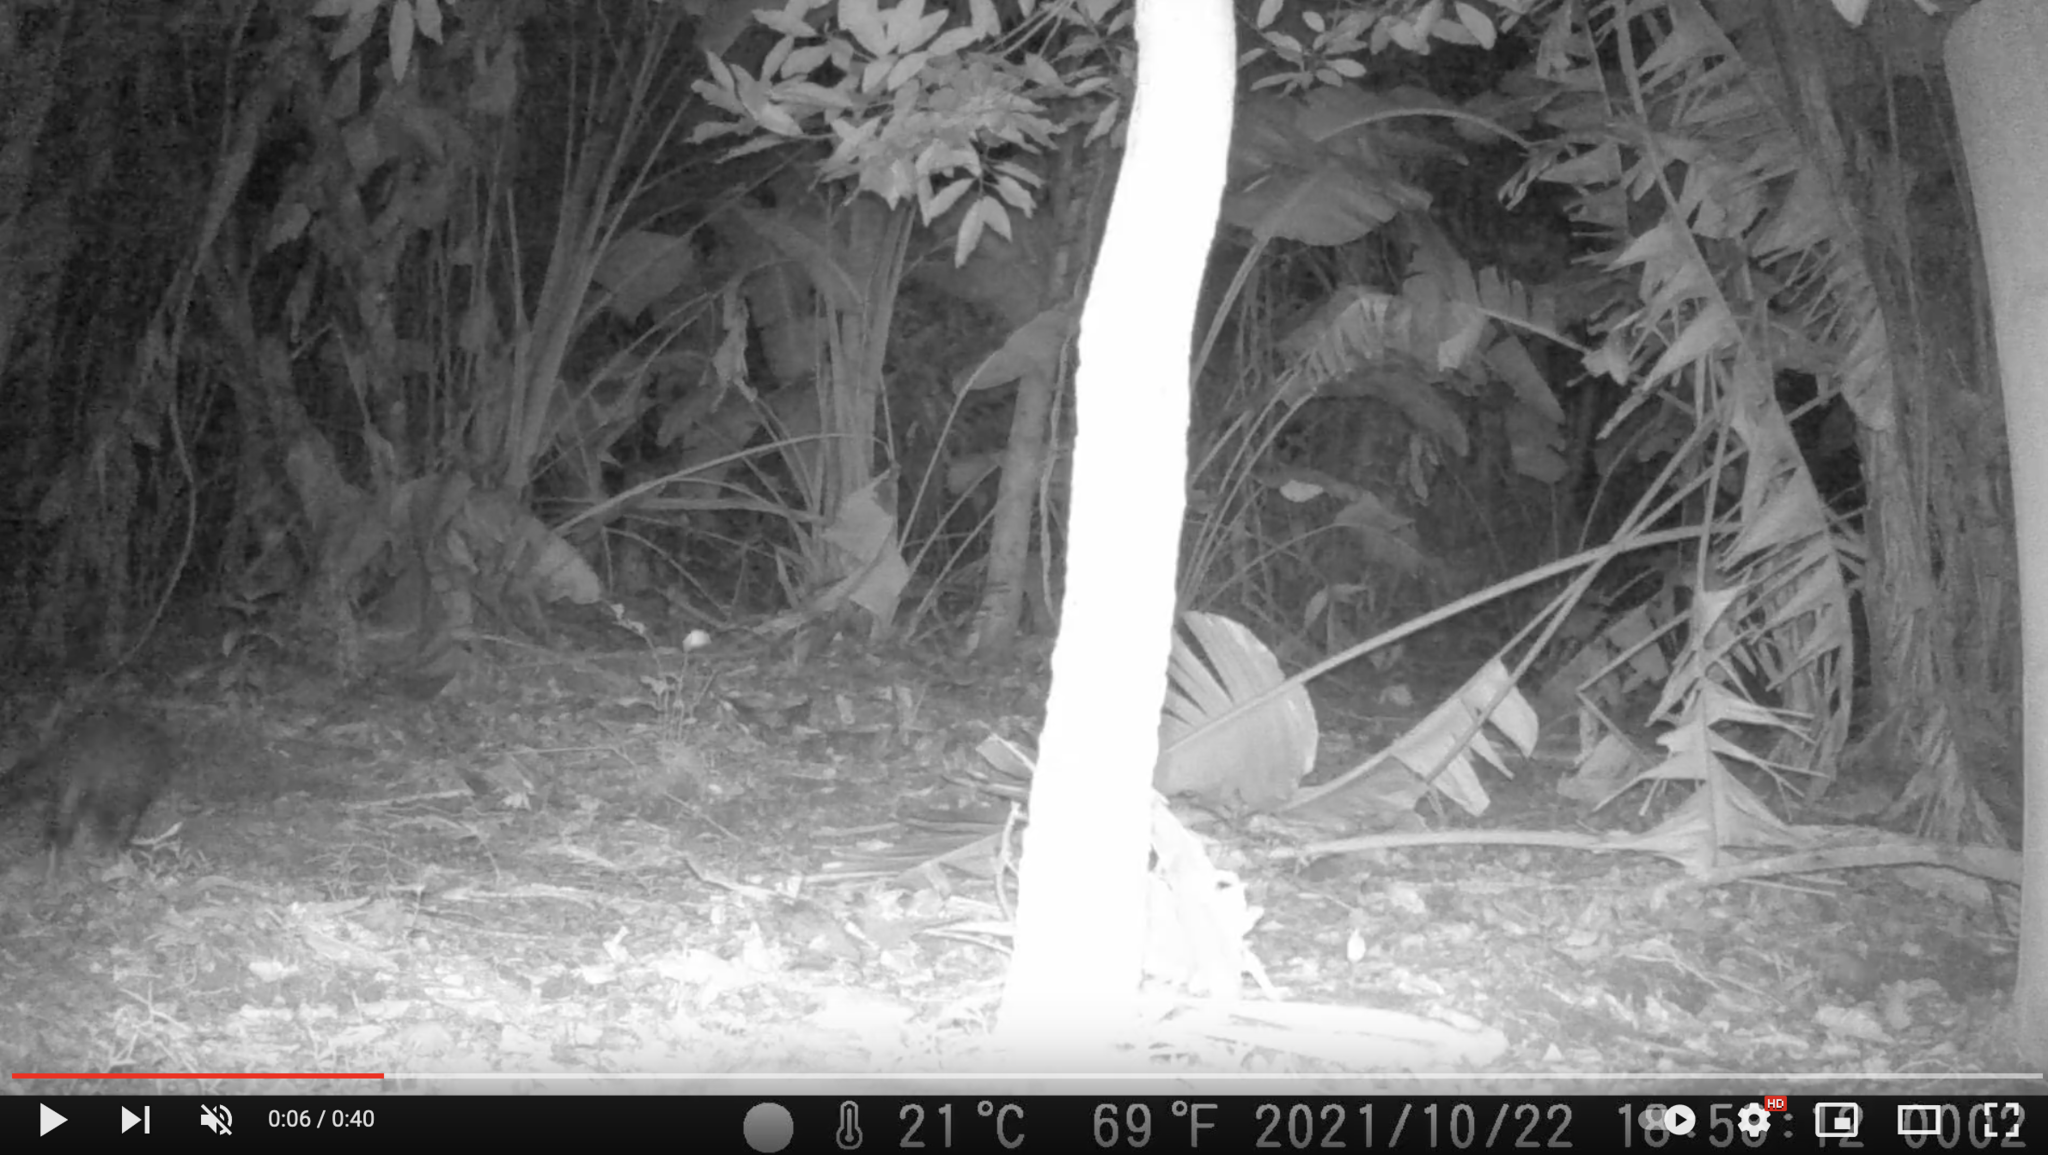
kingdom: Animalia
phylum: Chordata
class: Mammalia
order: Carnivora
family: Herpestidae
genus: Atilax
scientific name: Atilax paludinosus
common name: Marsh mongoose
